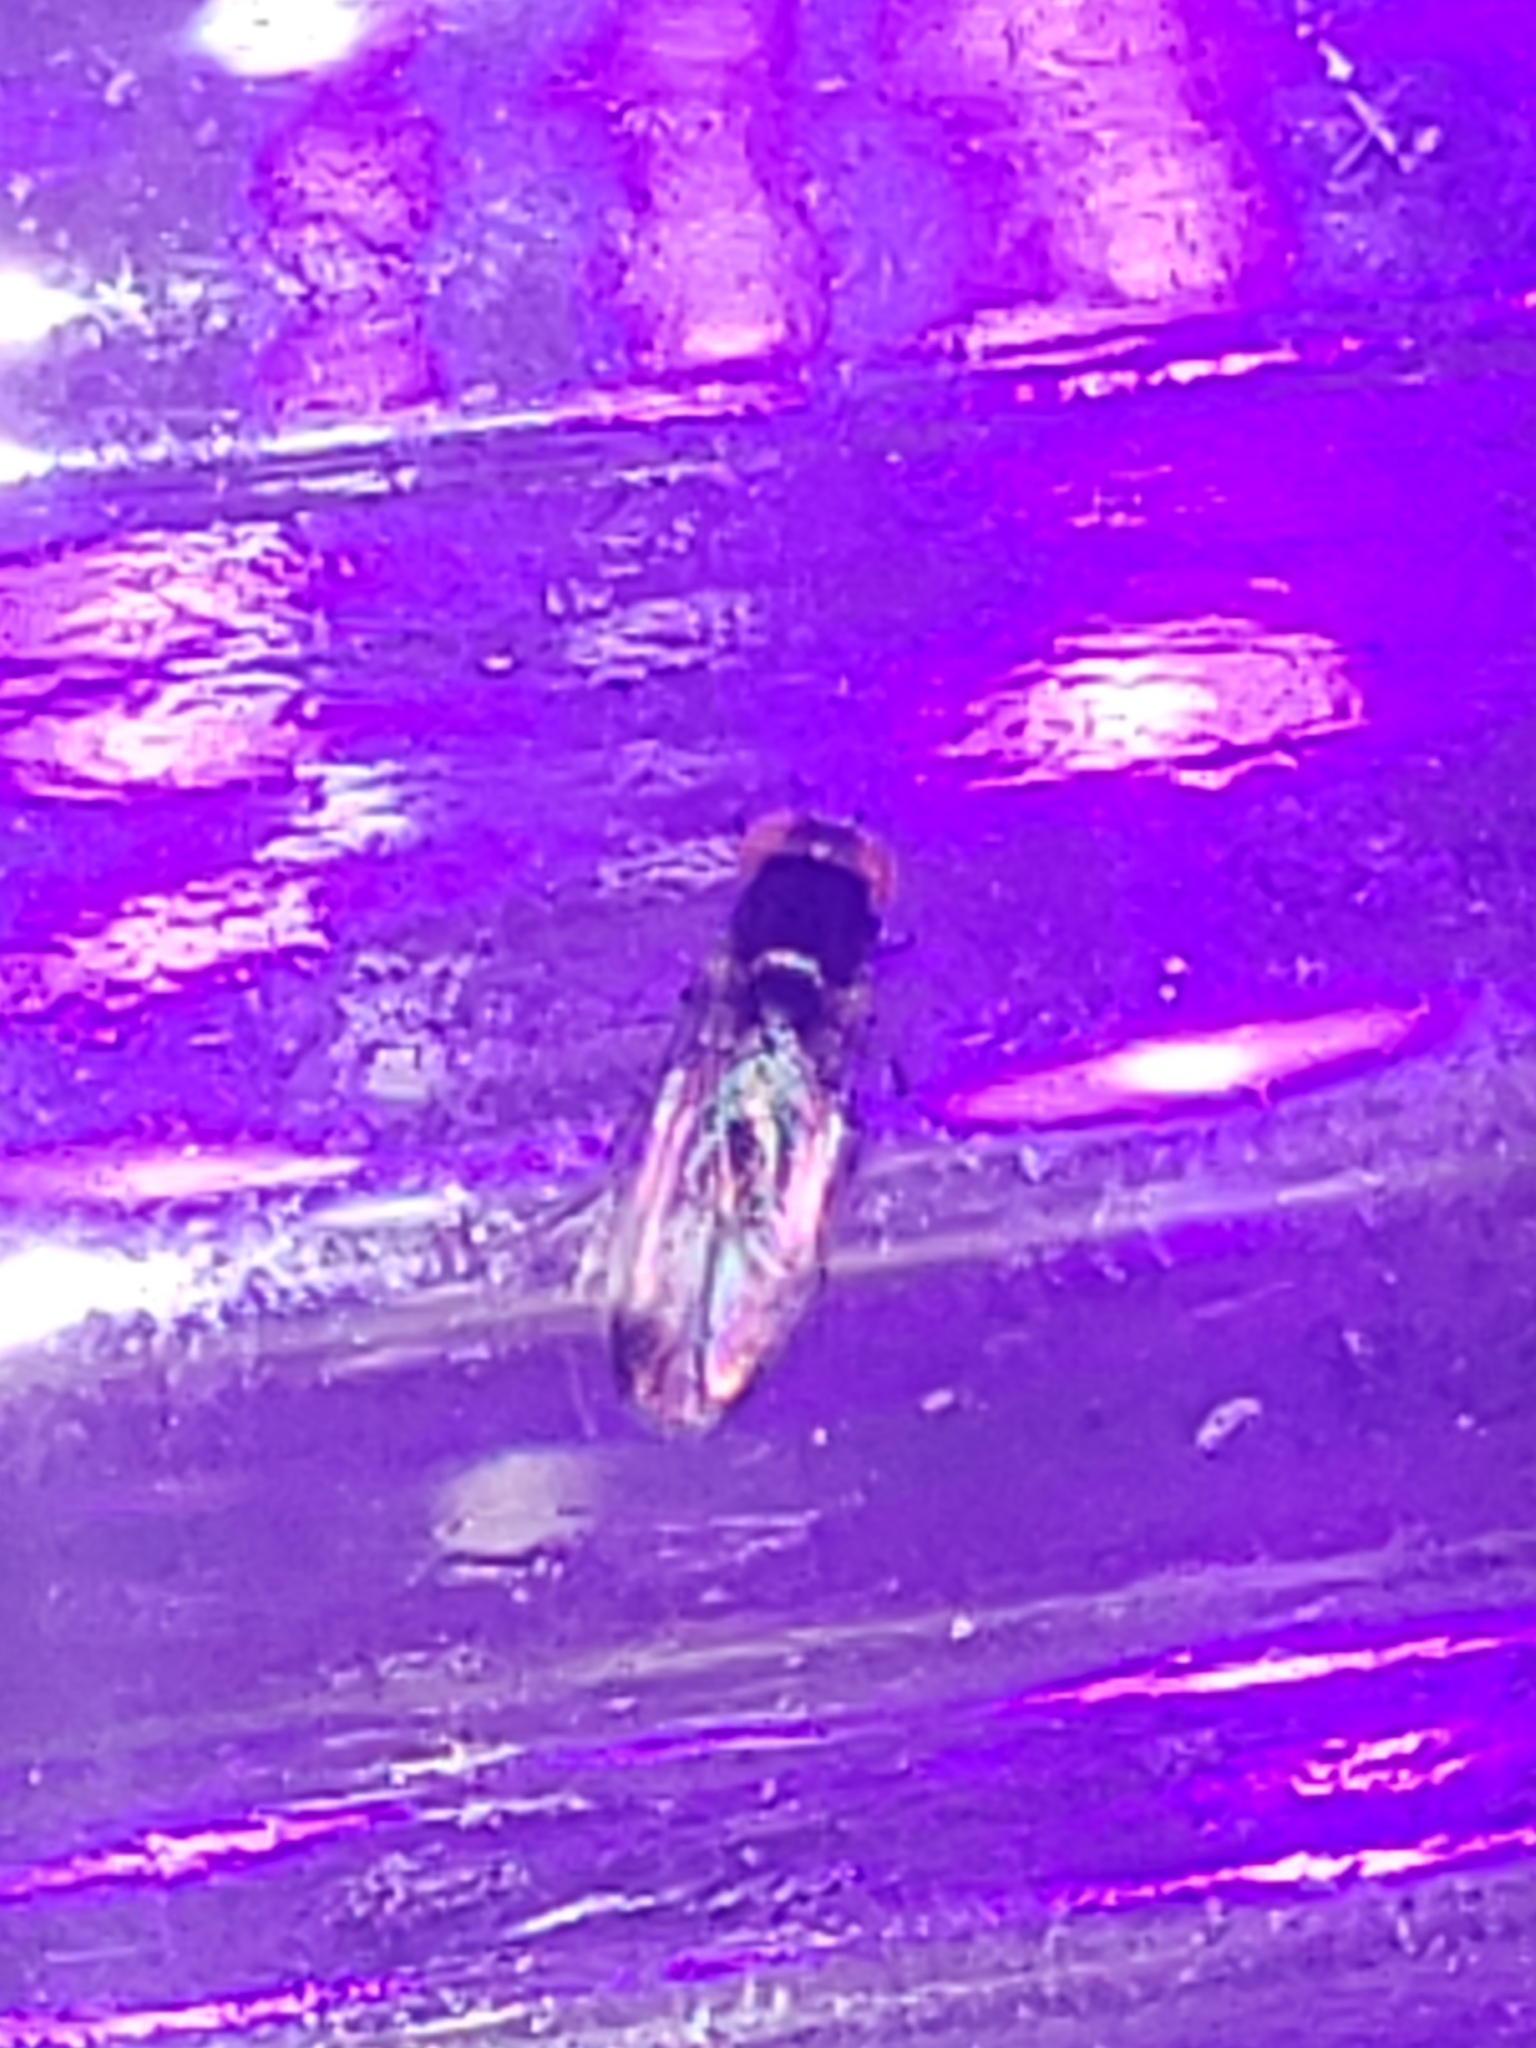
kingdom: Animalia
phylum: Arthropoda
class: Insecta
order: Diptera
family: Drosophilidae
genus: Drosophila
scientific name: Drosophila suzukii
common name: Spotted-wing drosophila
